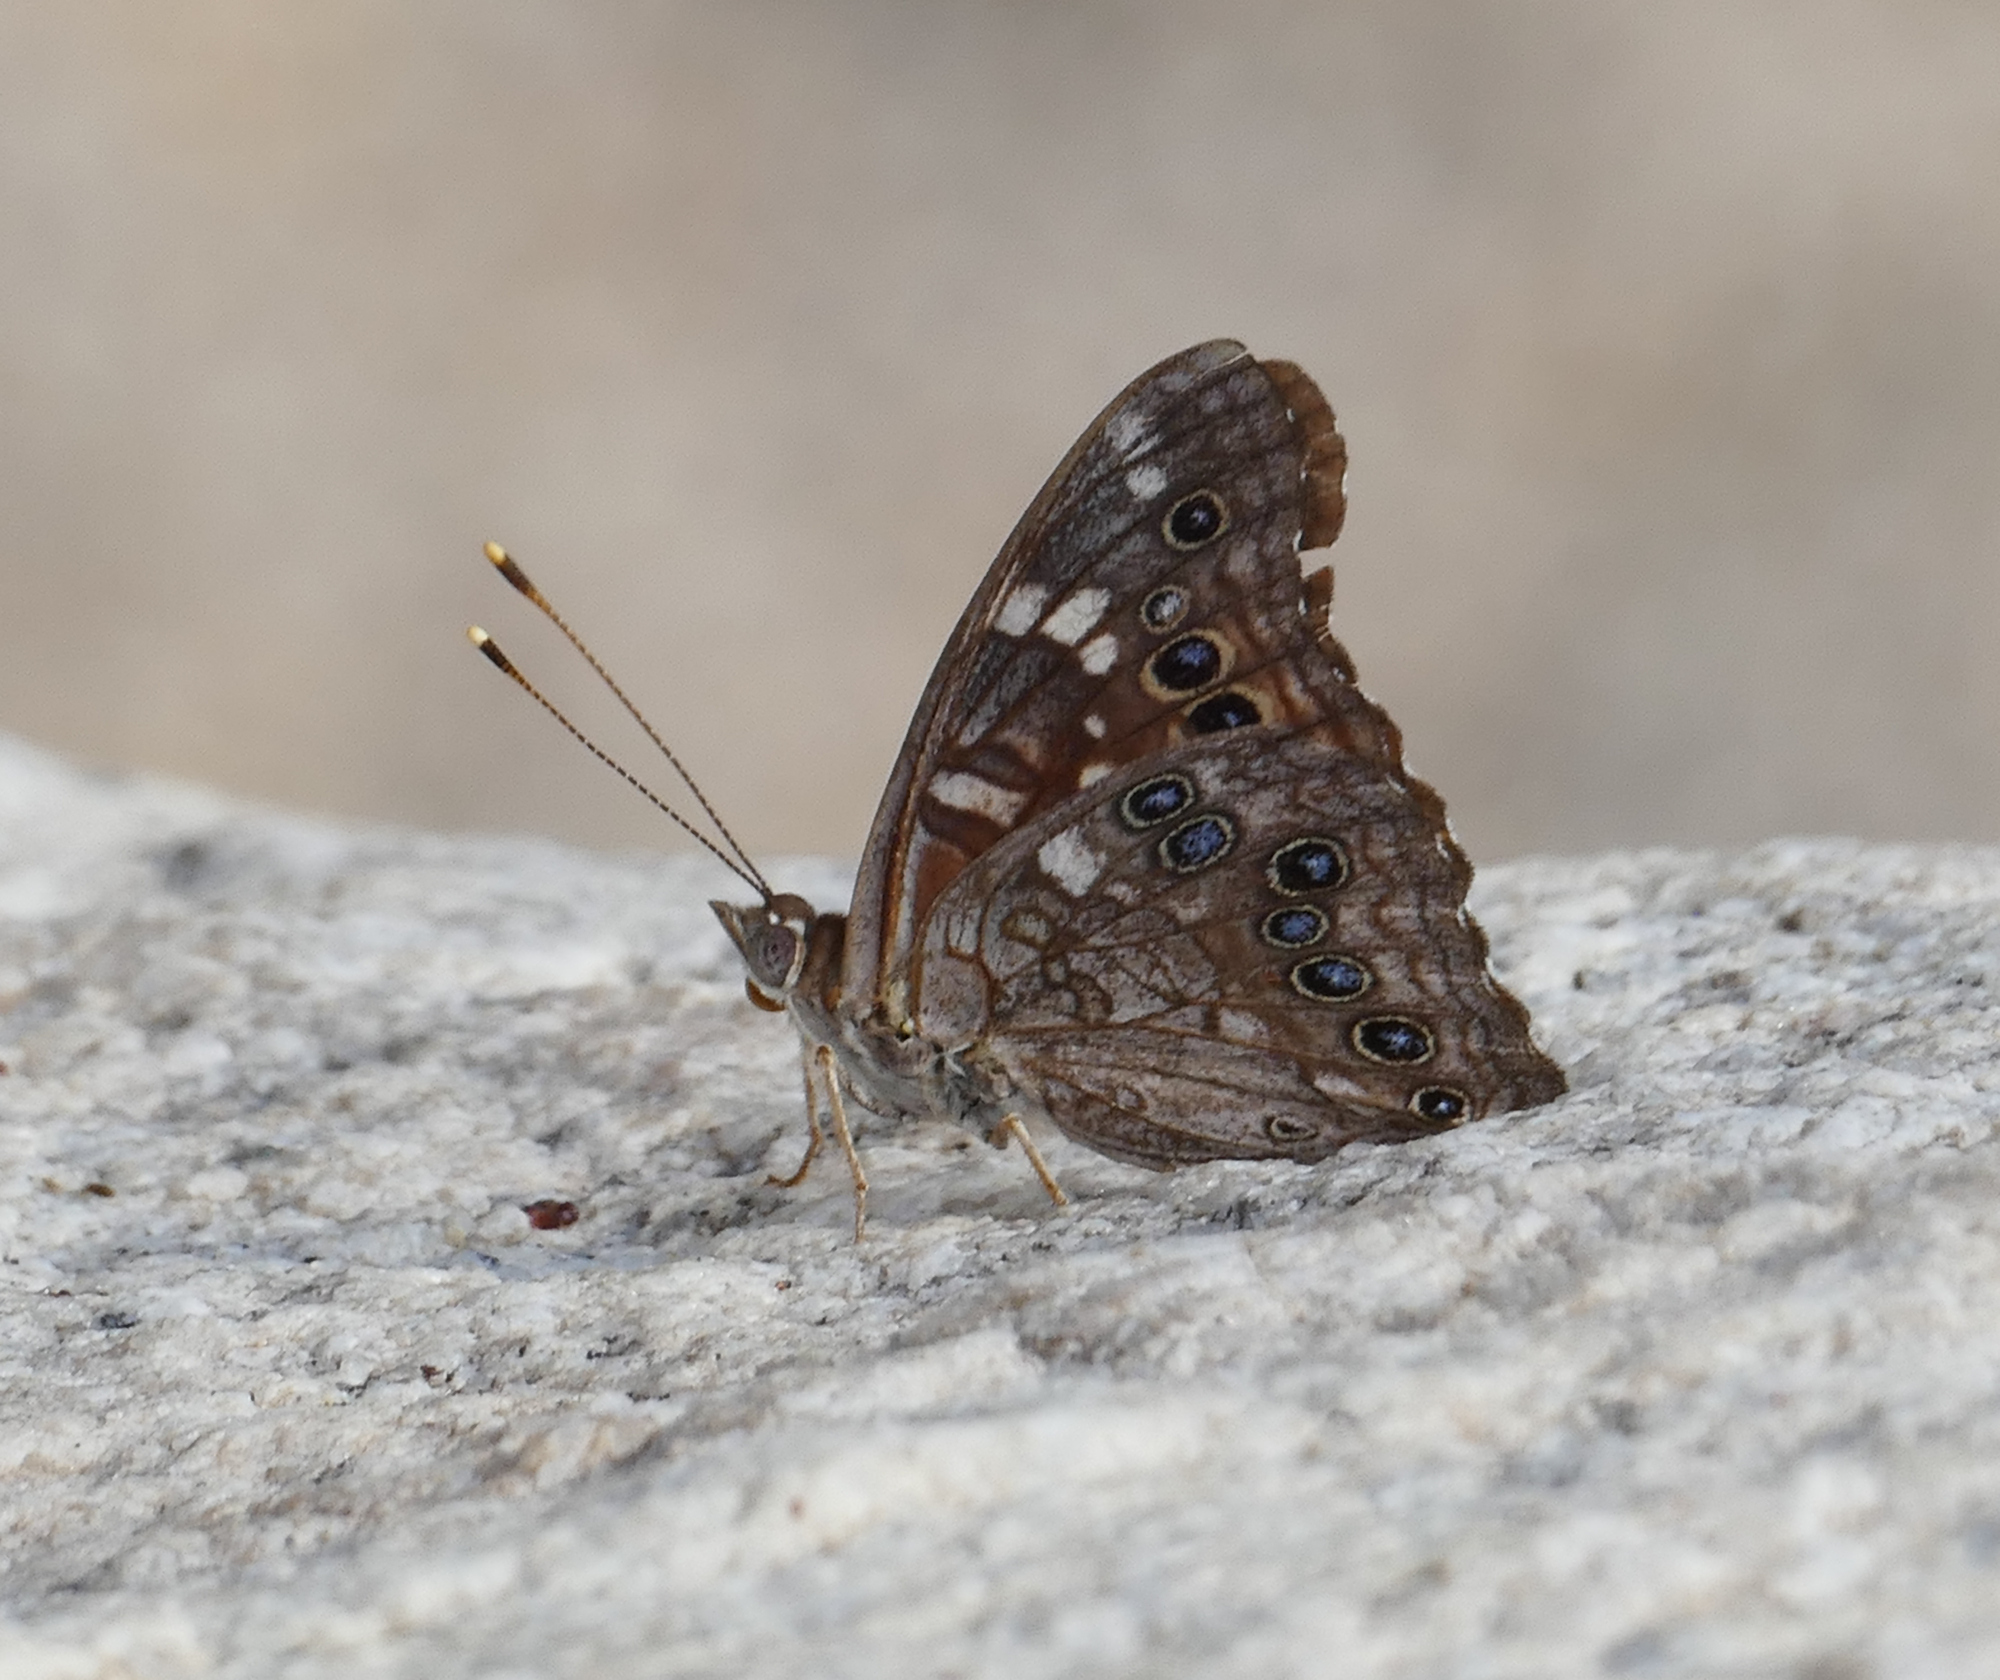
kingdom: Animalia
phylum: Arthropoda
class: Insecta
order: Lepidoptera
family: Nymphalidae
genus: Asterocampa
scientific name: Asterocampa leilia
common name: Empress leilia
